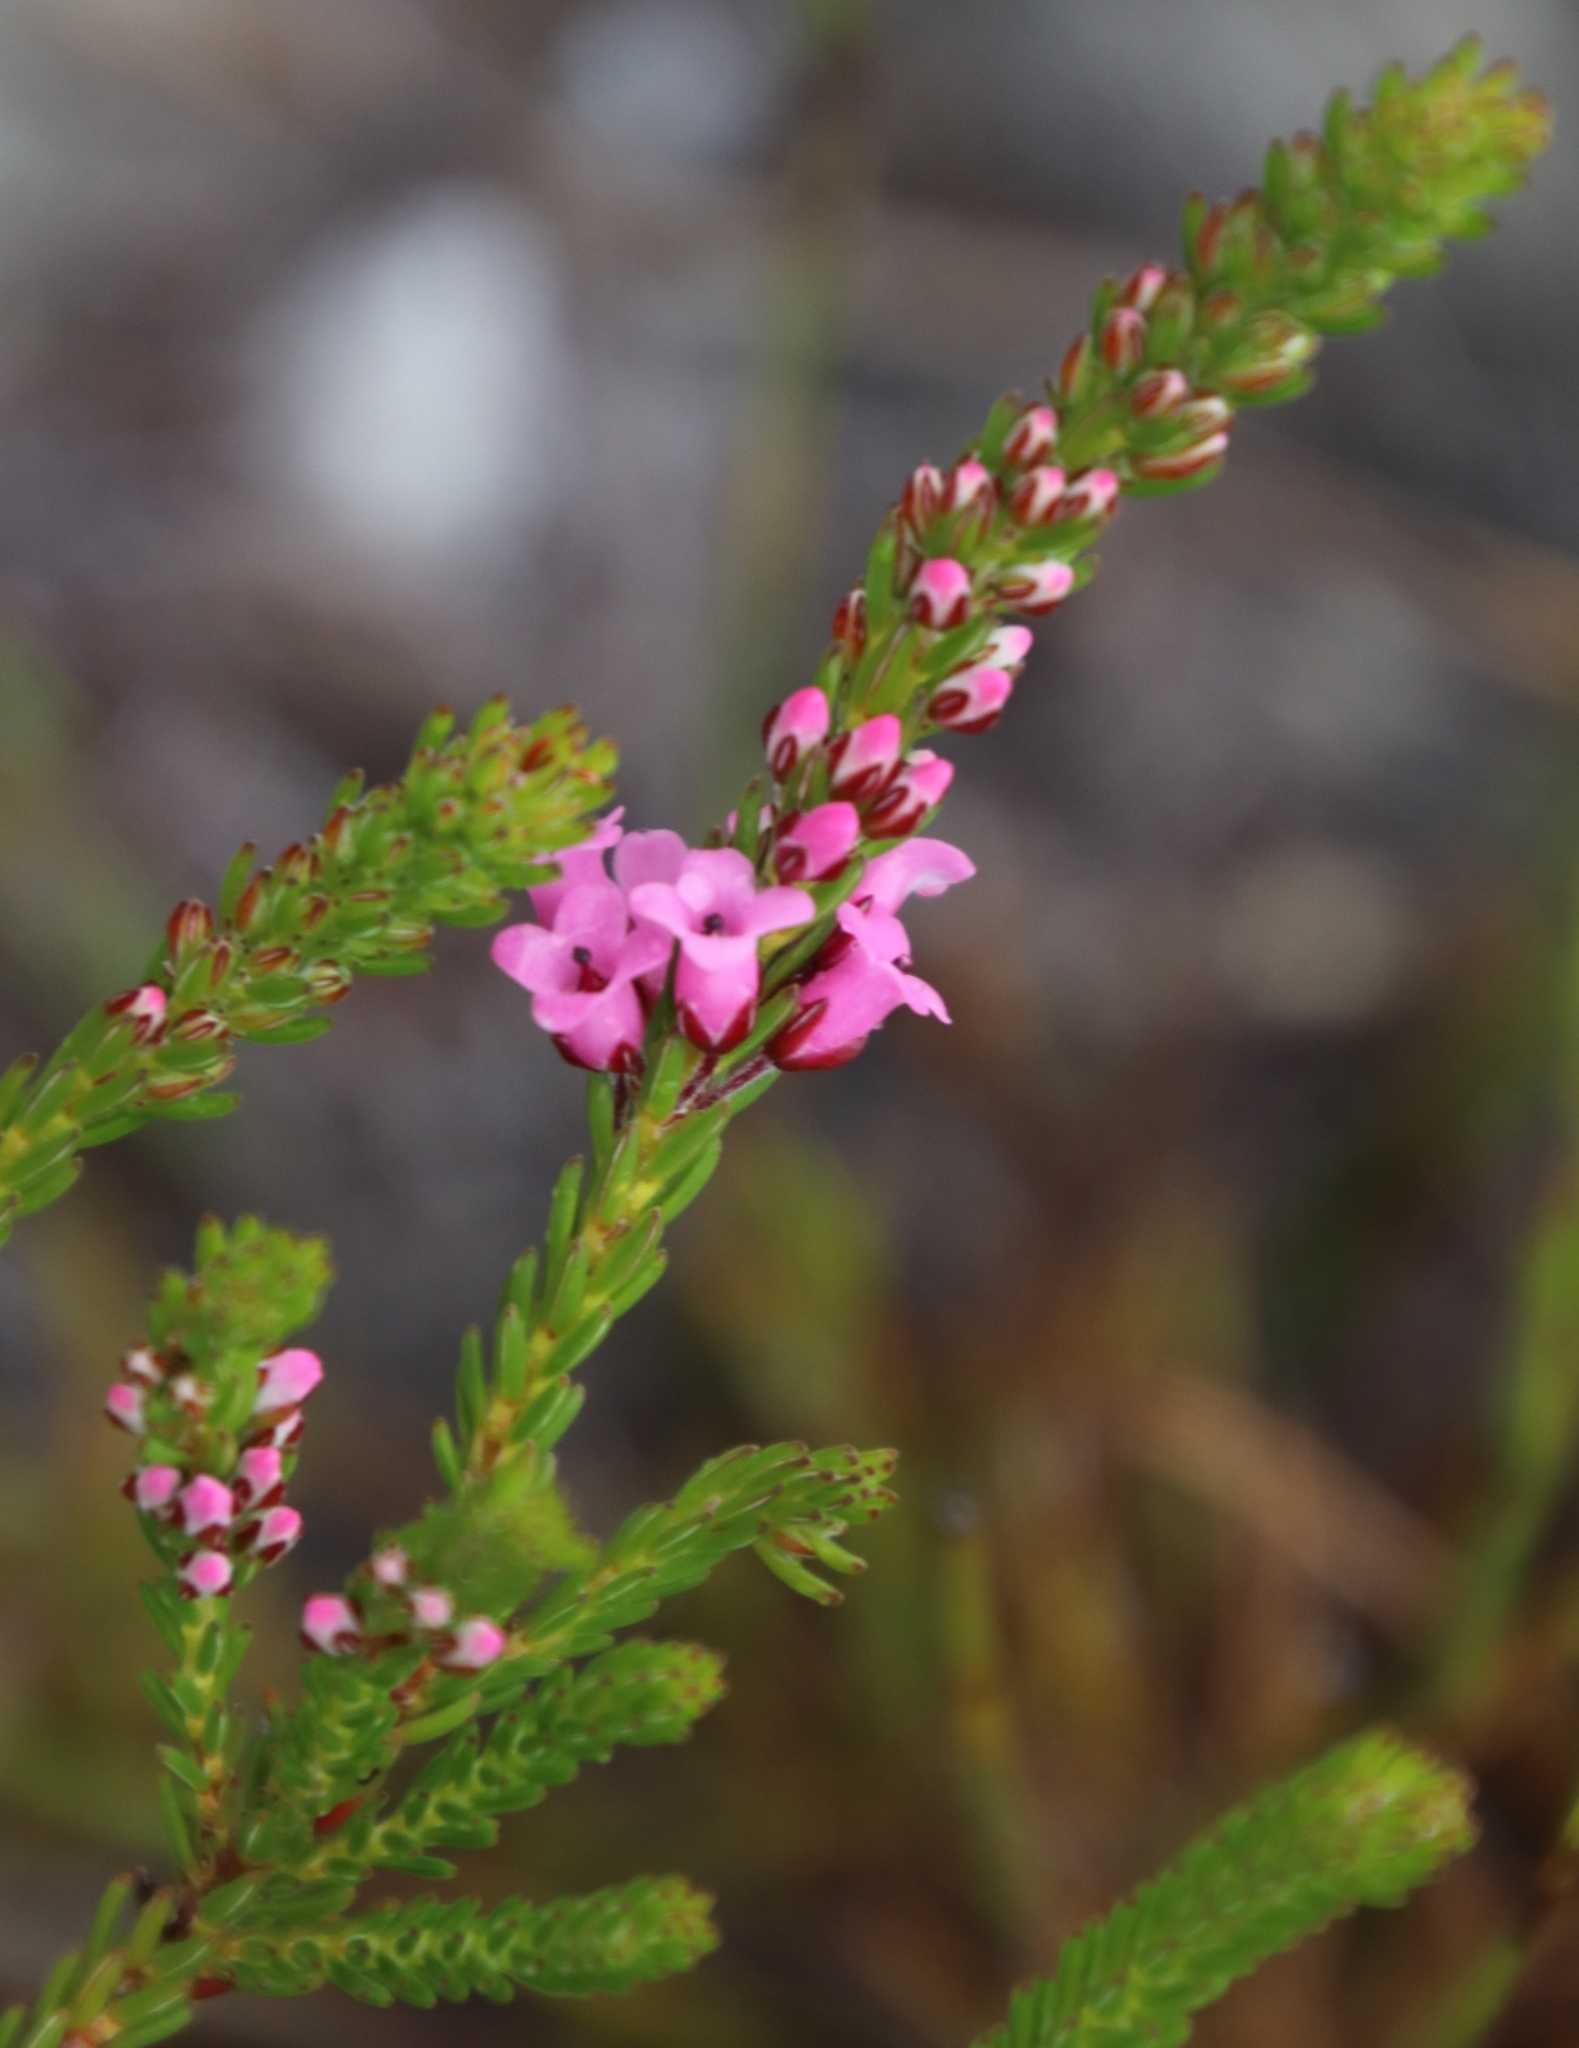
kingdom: Plantae
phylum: Tracheophyta
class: Magnoliopsida
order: Ericales
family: Ericaceae
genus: Erica
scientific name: Erica longiaristata
